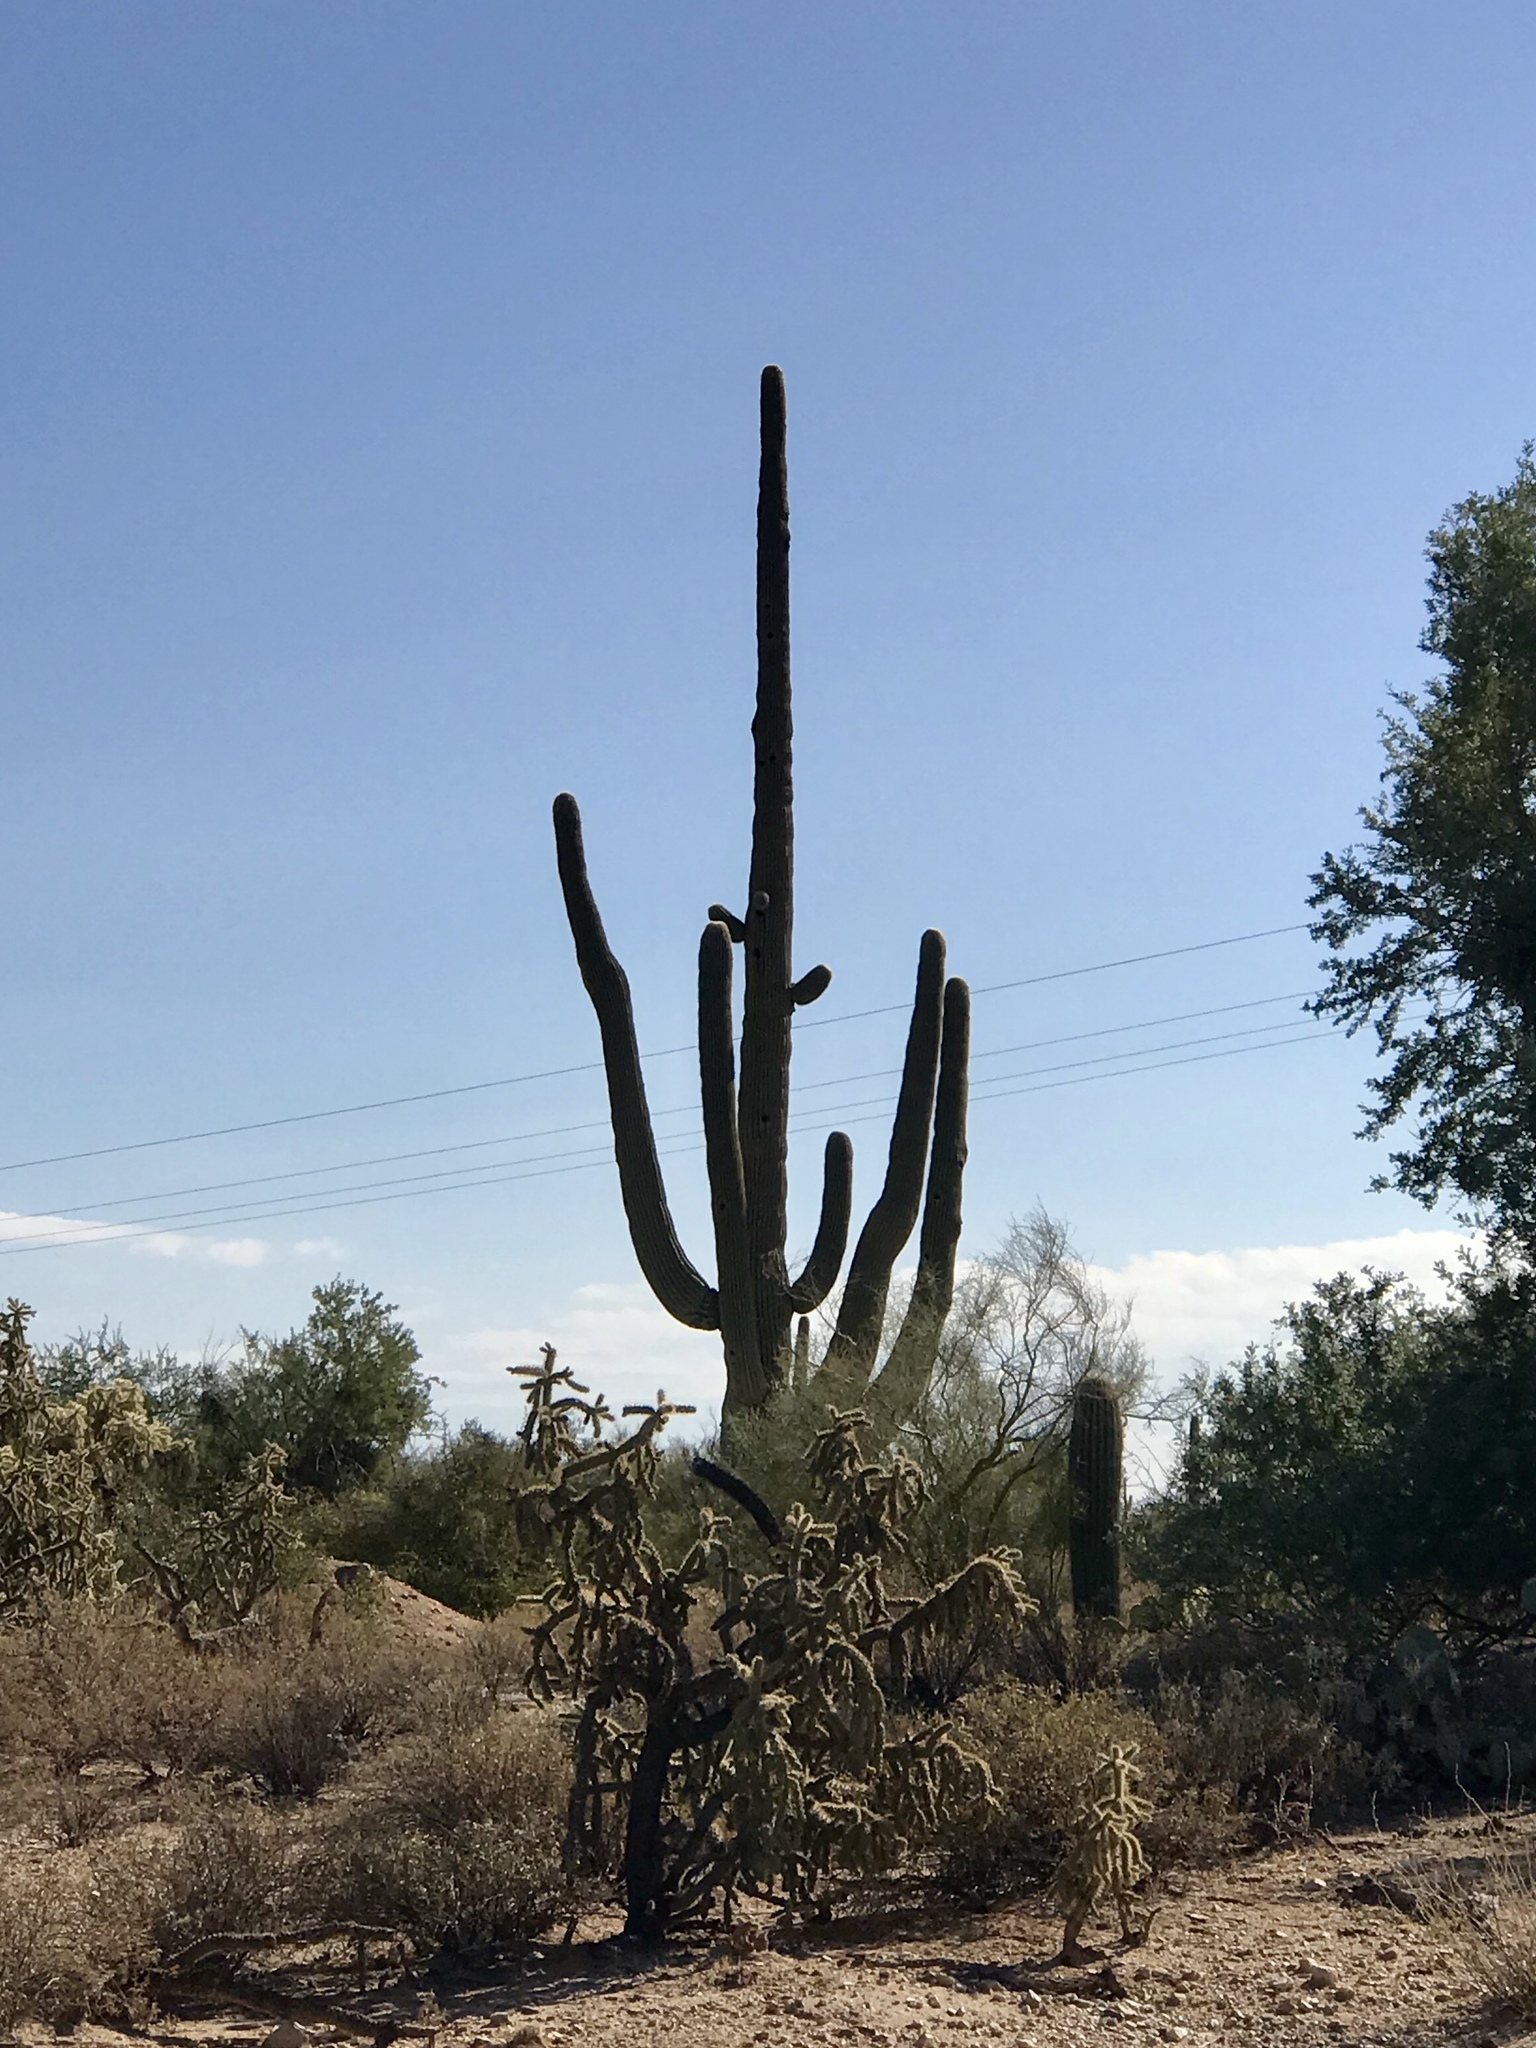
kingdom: Plantae
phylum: Tracheophyta
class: Magnoliopsida
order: Caryophyllales
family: Cactaceae
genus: Carnegiea
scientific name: Carnegiea gigantea
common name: Saguaro
